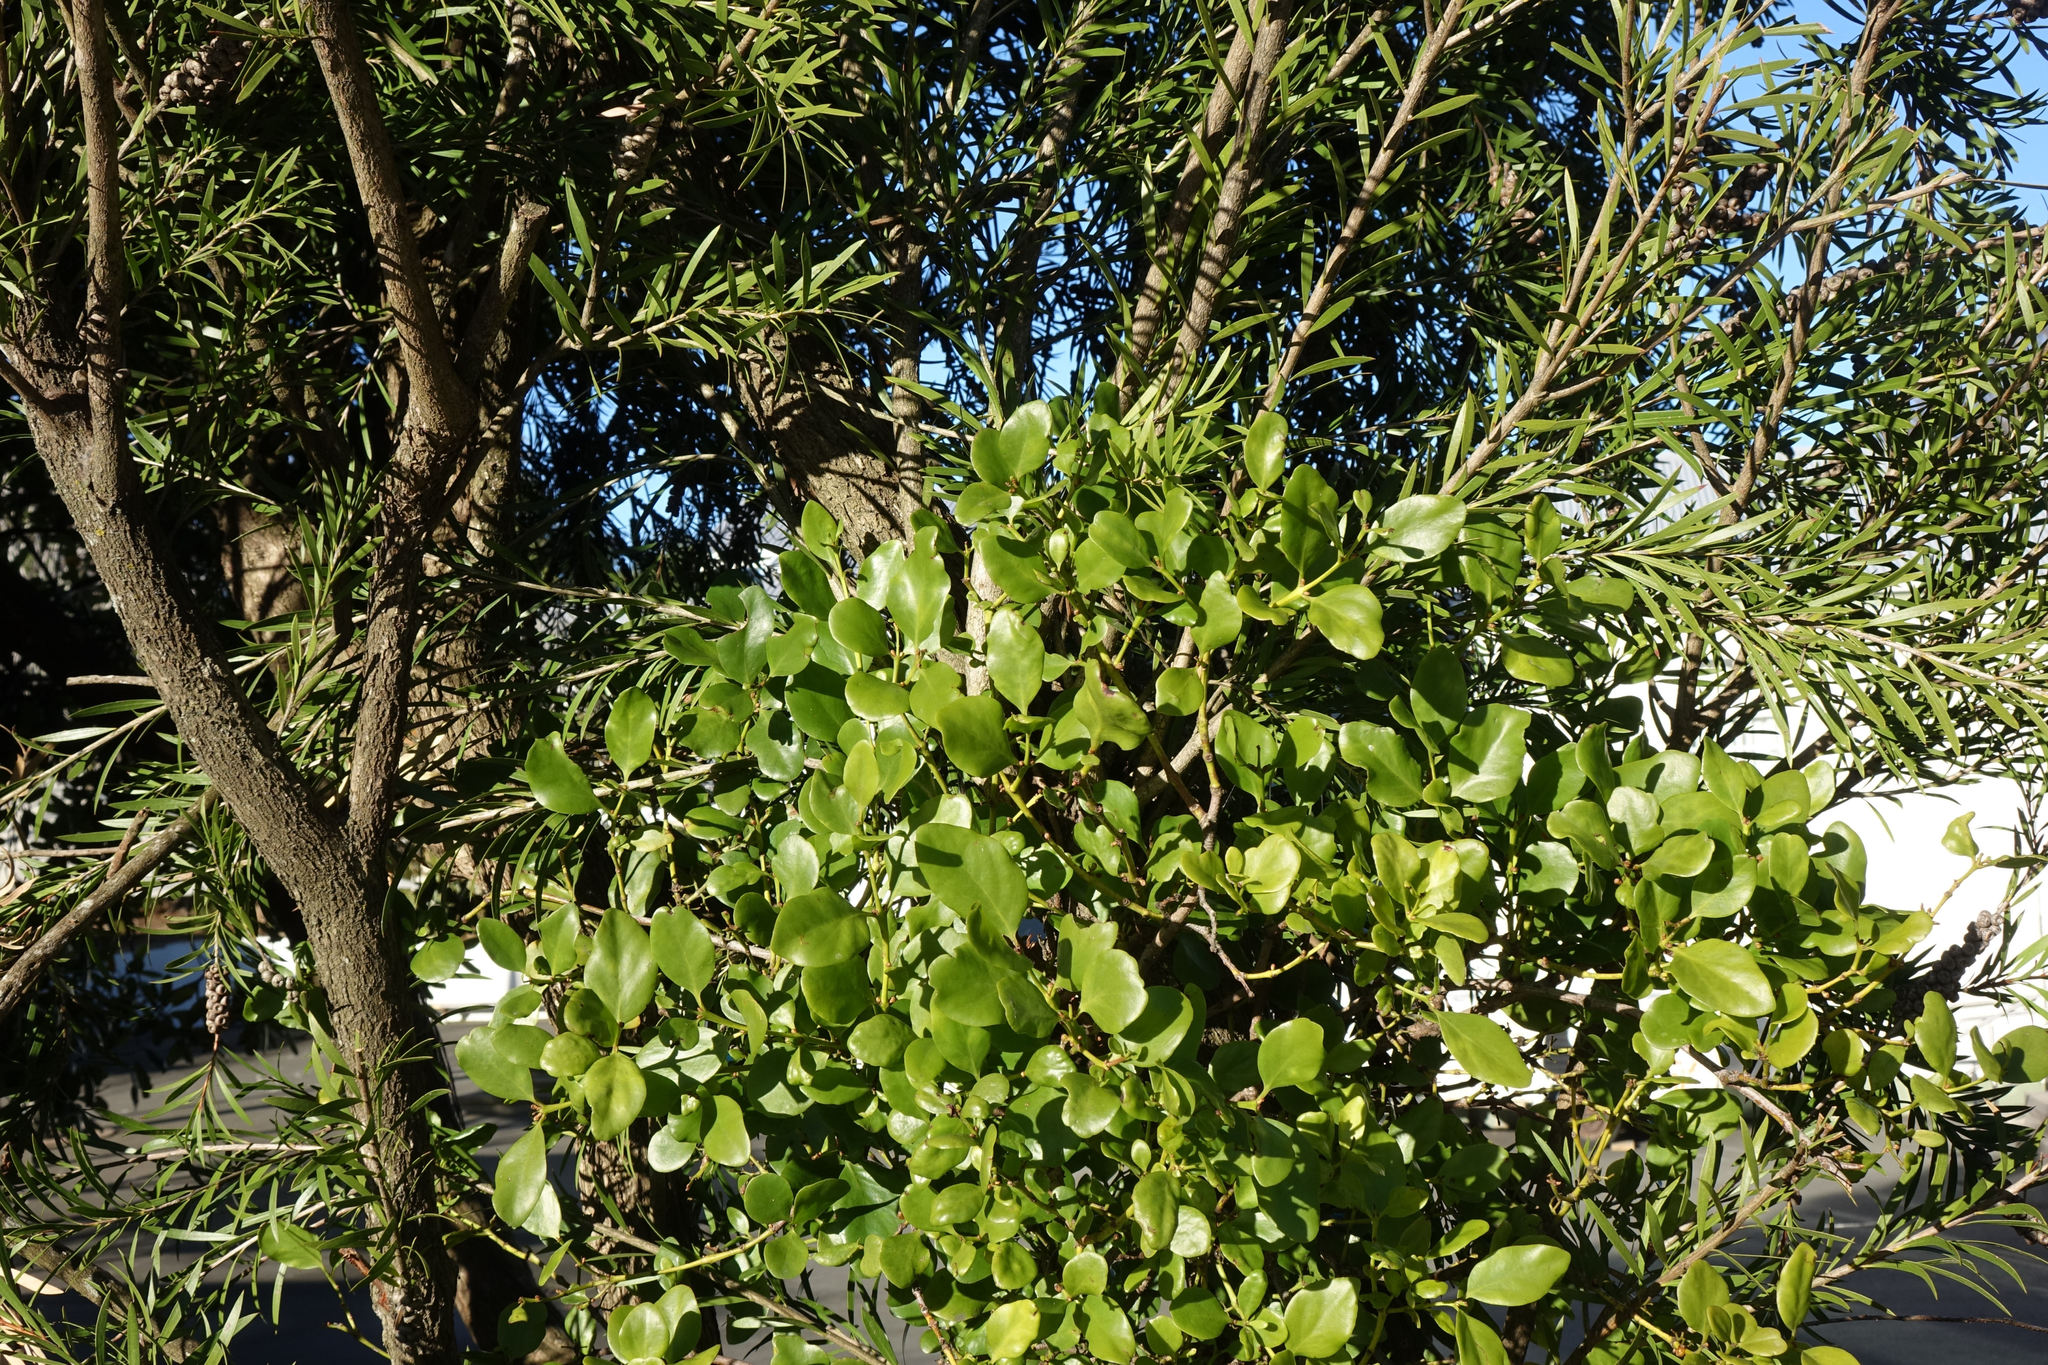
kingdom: Plantae
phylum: Tracheophyta
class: Magnoliopsida
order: Santalales
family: Loranthaceae
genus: Ileostylus
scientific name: Ileostylus micranthus
